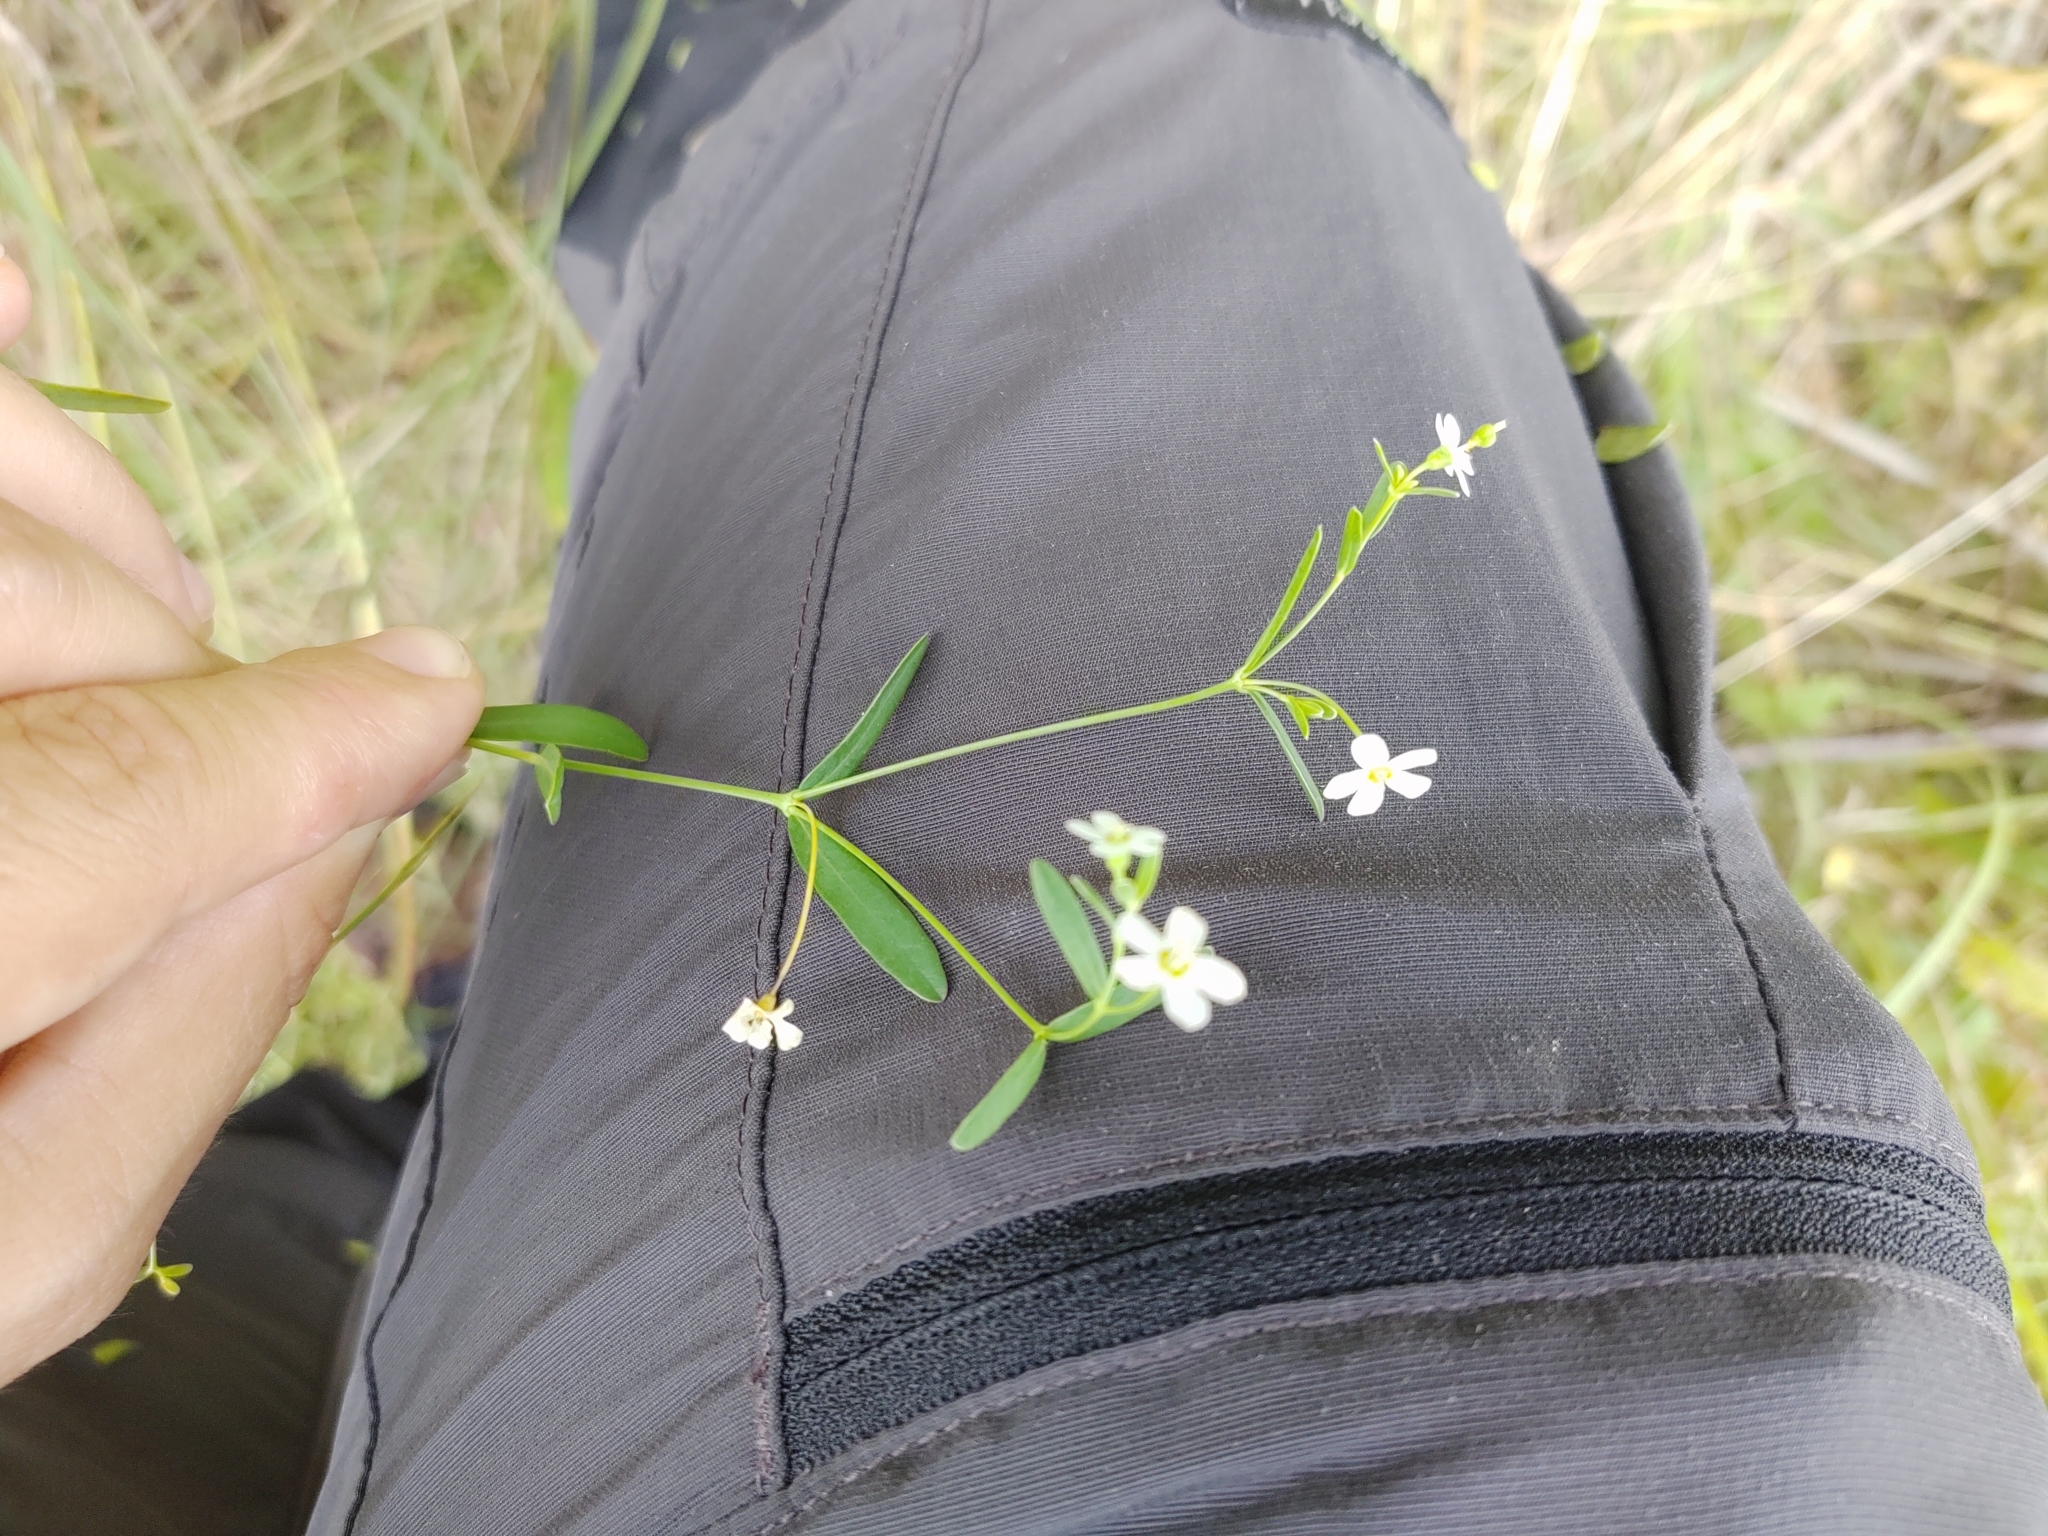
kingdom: Plantae
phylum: Tracheophyta
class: Magnoliopsida
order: Malpighiales
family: Euphorbiaceae
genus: Euphorbia
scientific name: Euphorbia corollata
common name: Flowering spurge
